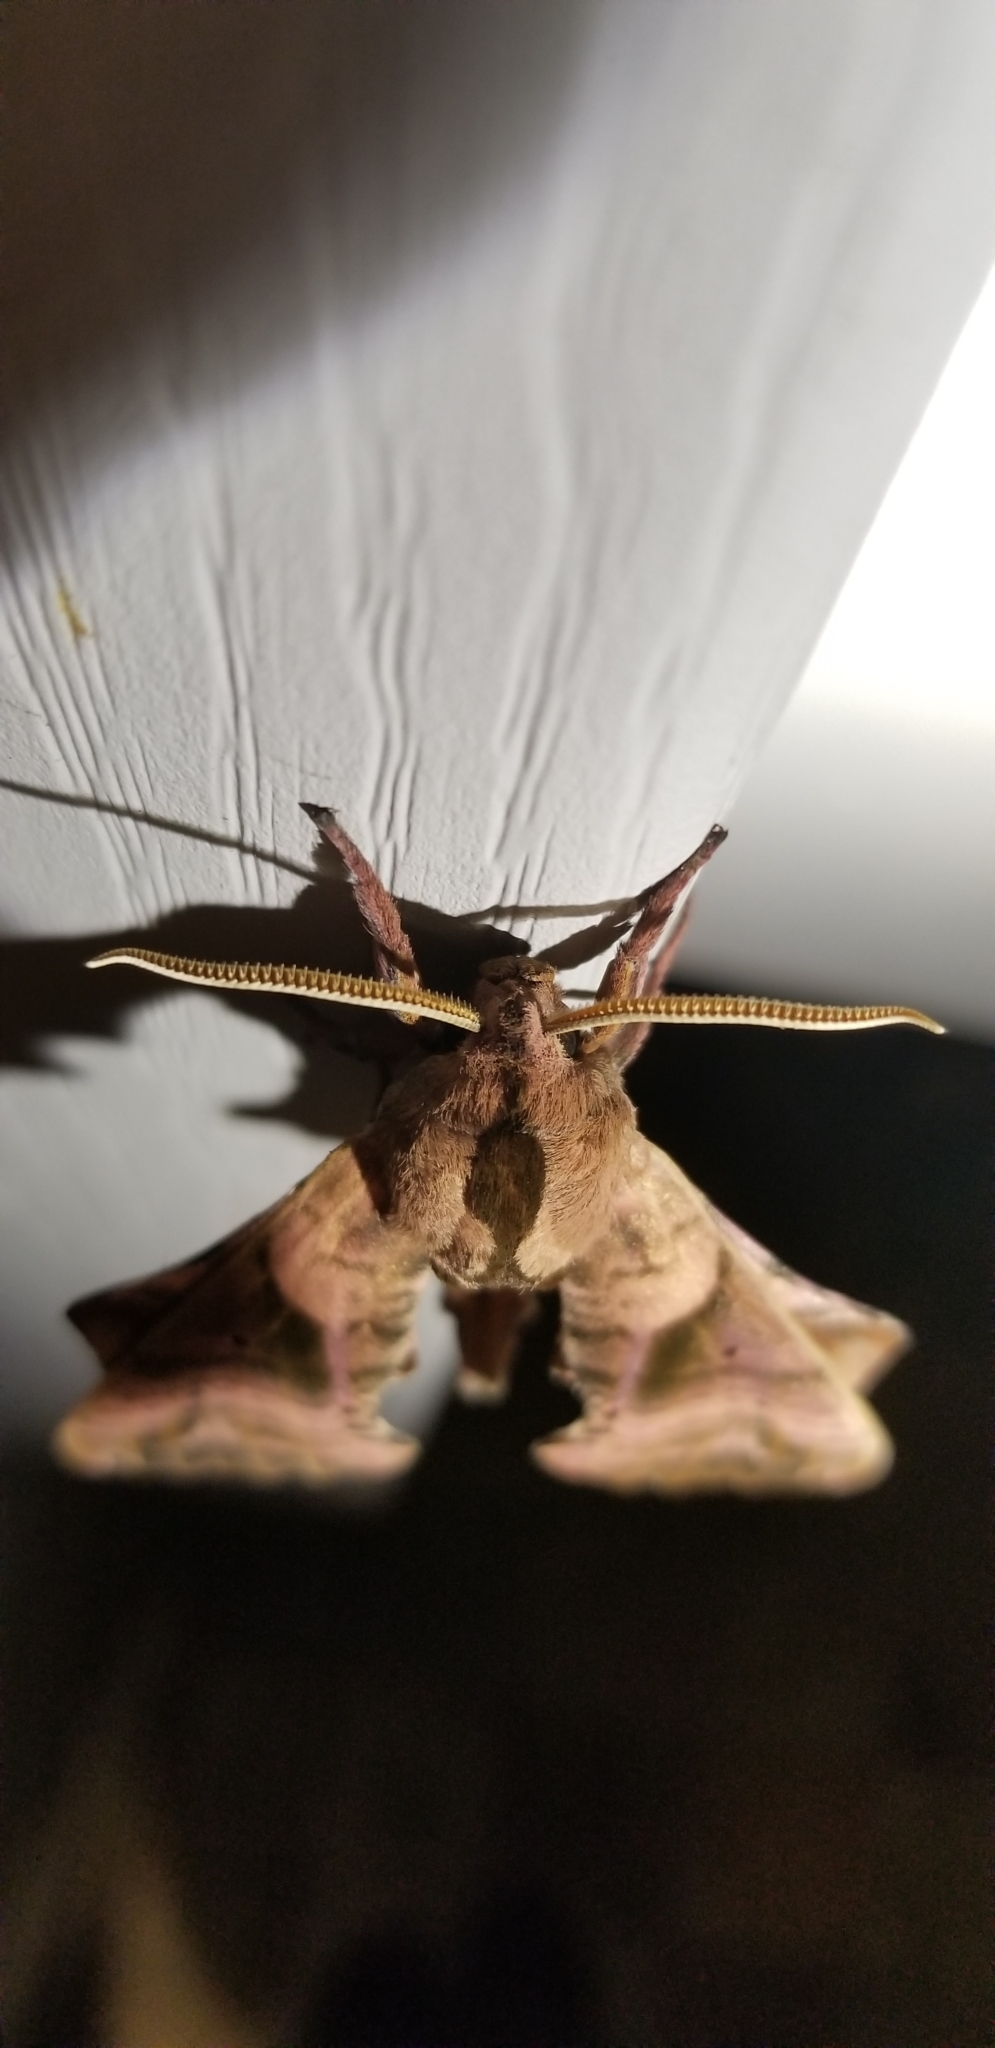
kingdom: Animalia
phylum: Arthropoda
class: Insecta
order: Lepidoptera
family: Sphingidae
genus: Paonias
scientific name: Paonias excaecata
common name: Blind-eyed sphinx
